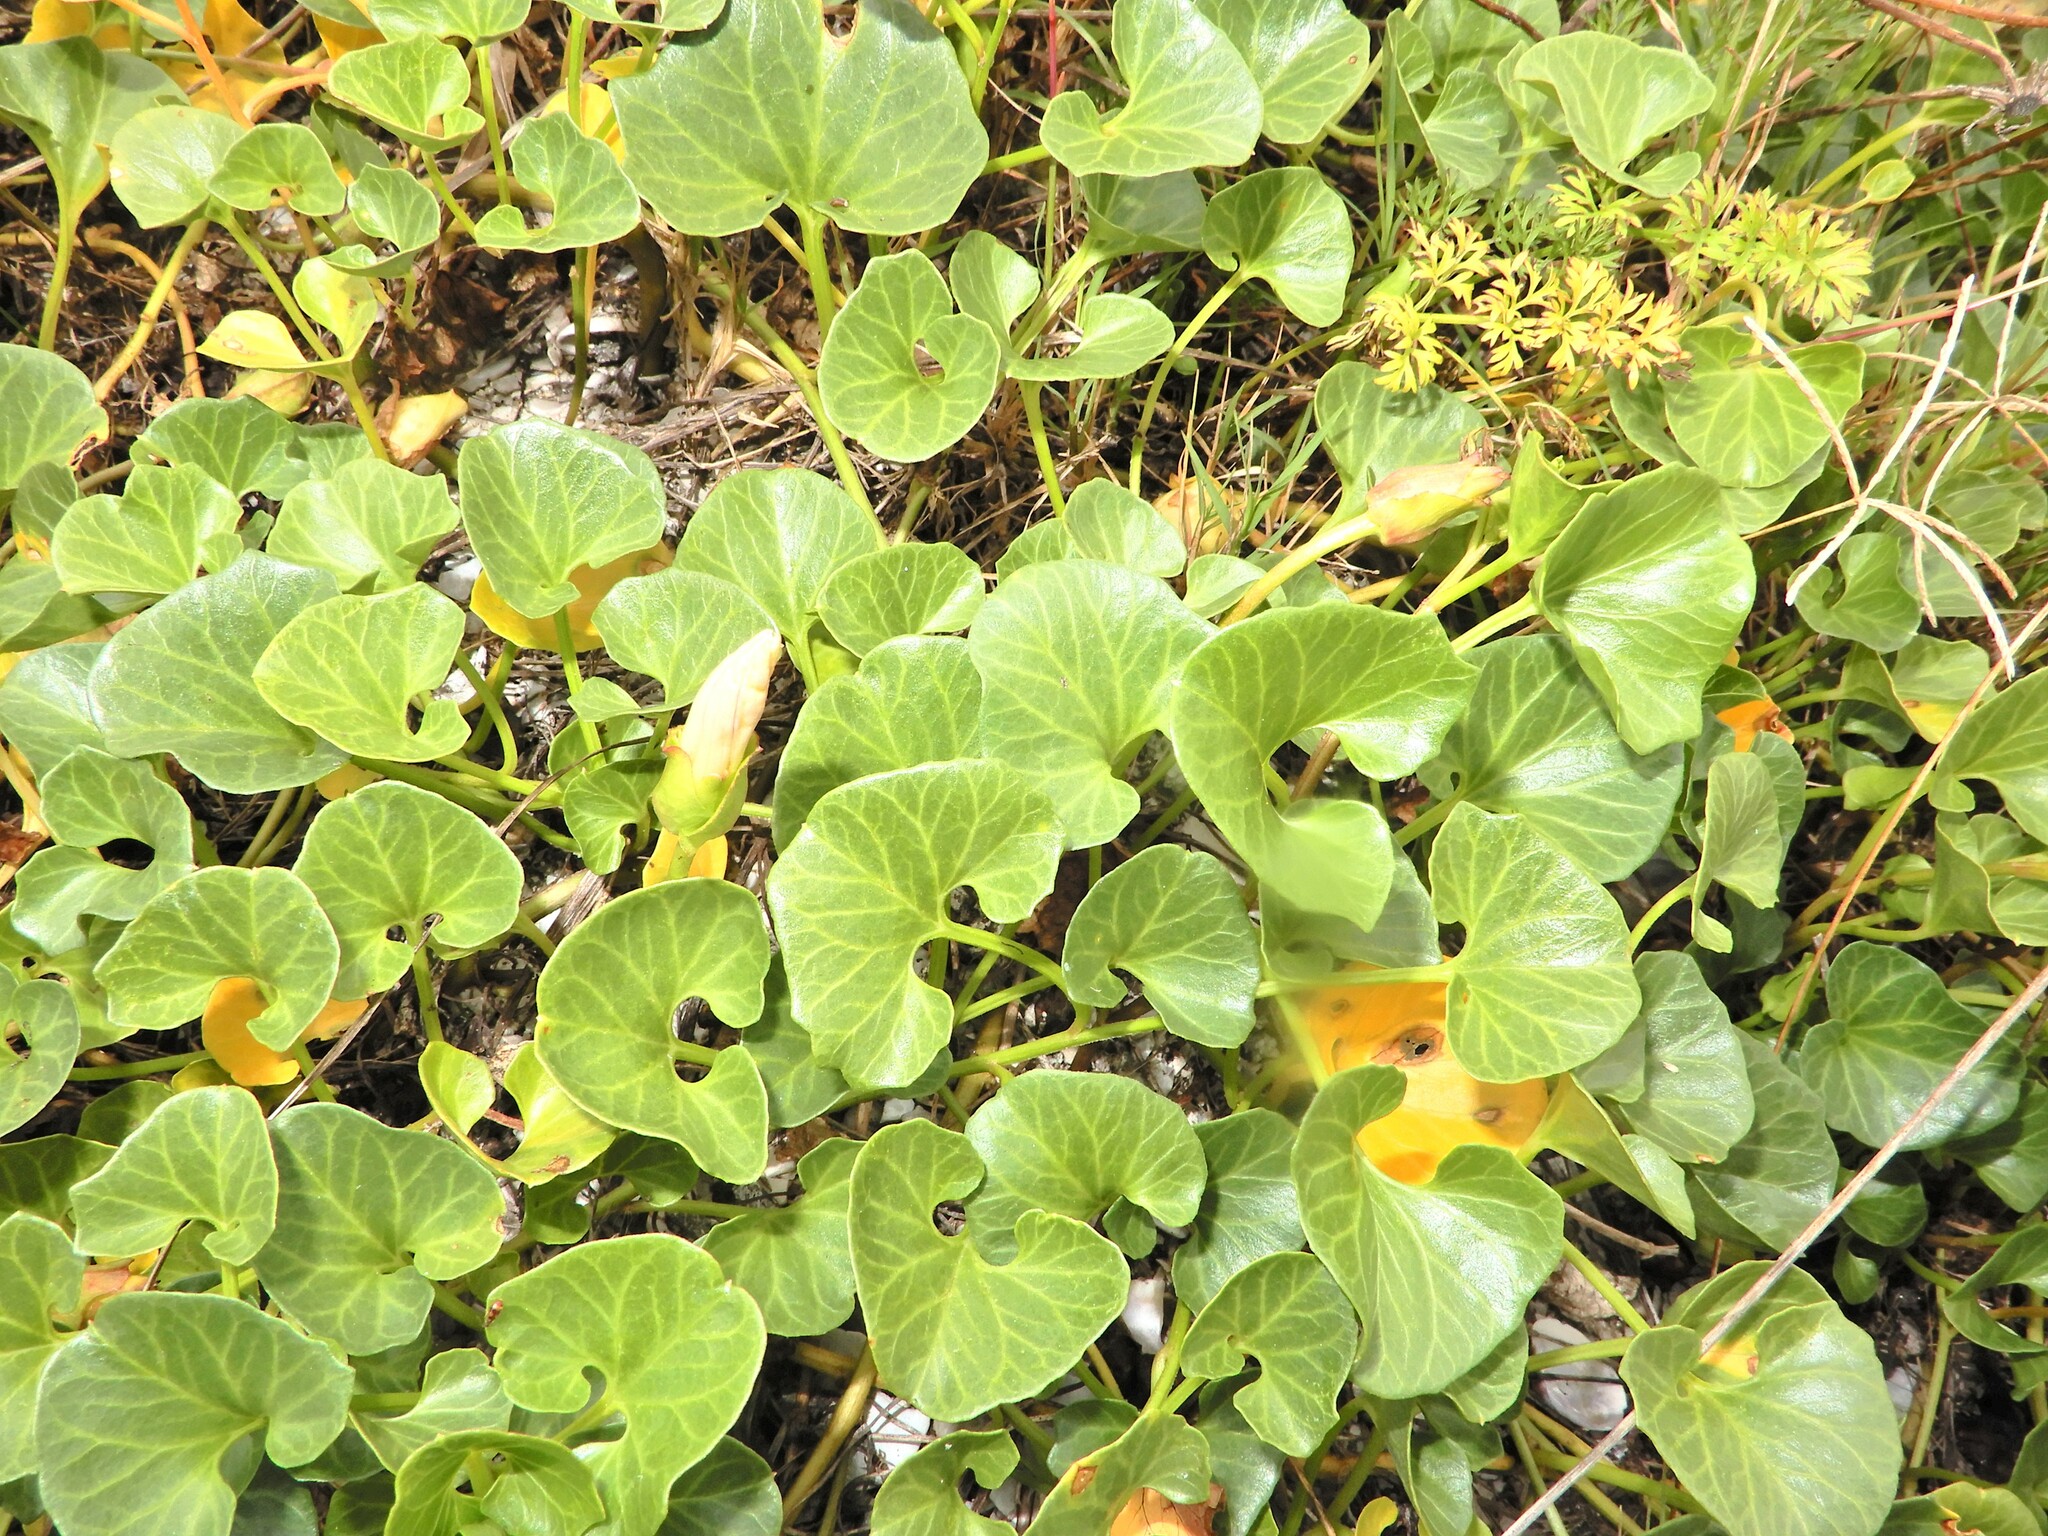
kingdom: Plantae
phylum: Tracheophyta
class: Magnoliopsida
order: Solanales
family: Convolvulaceae
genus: Calystegia
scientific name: Calystegia soldanella
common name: Sea bindweed
